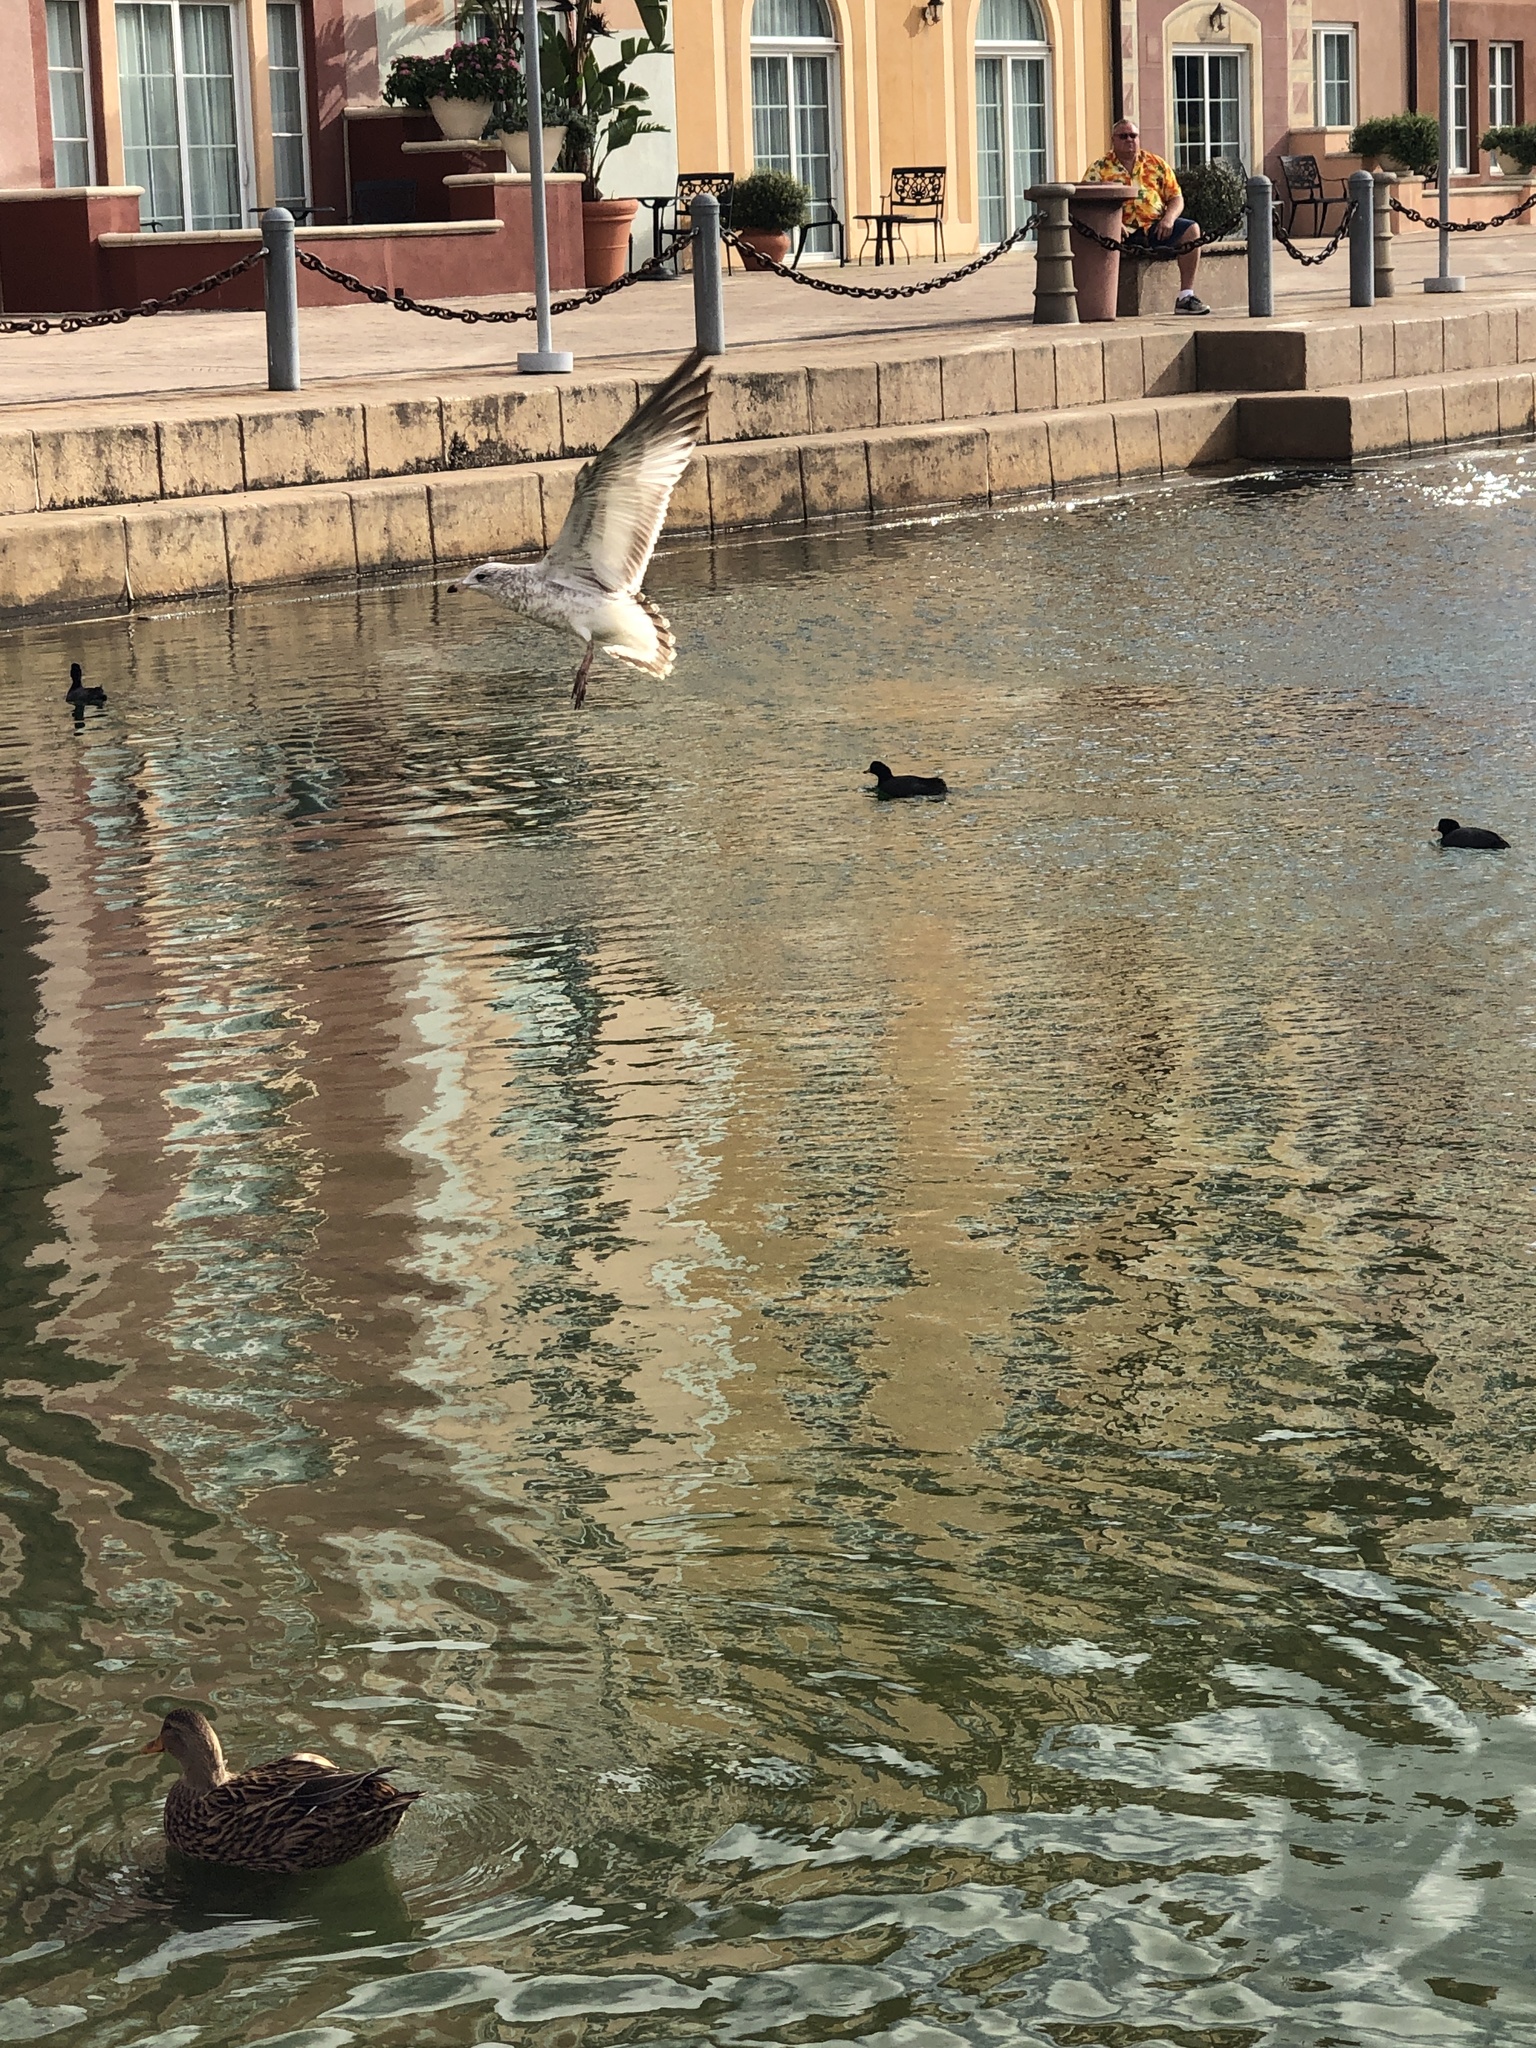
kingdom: Animalia
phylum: Chordata
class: Aves
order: Charadriiformes
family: Laridae
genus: Larus
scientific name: Larus delawarensis
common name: Ring-billed gull
